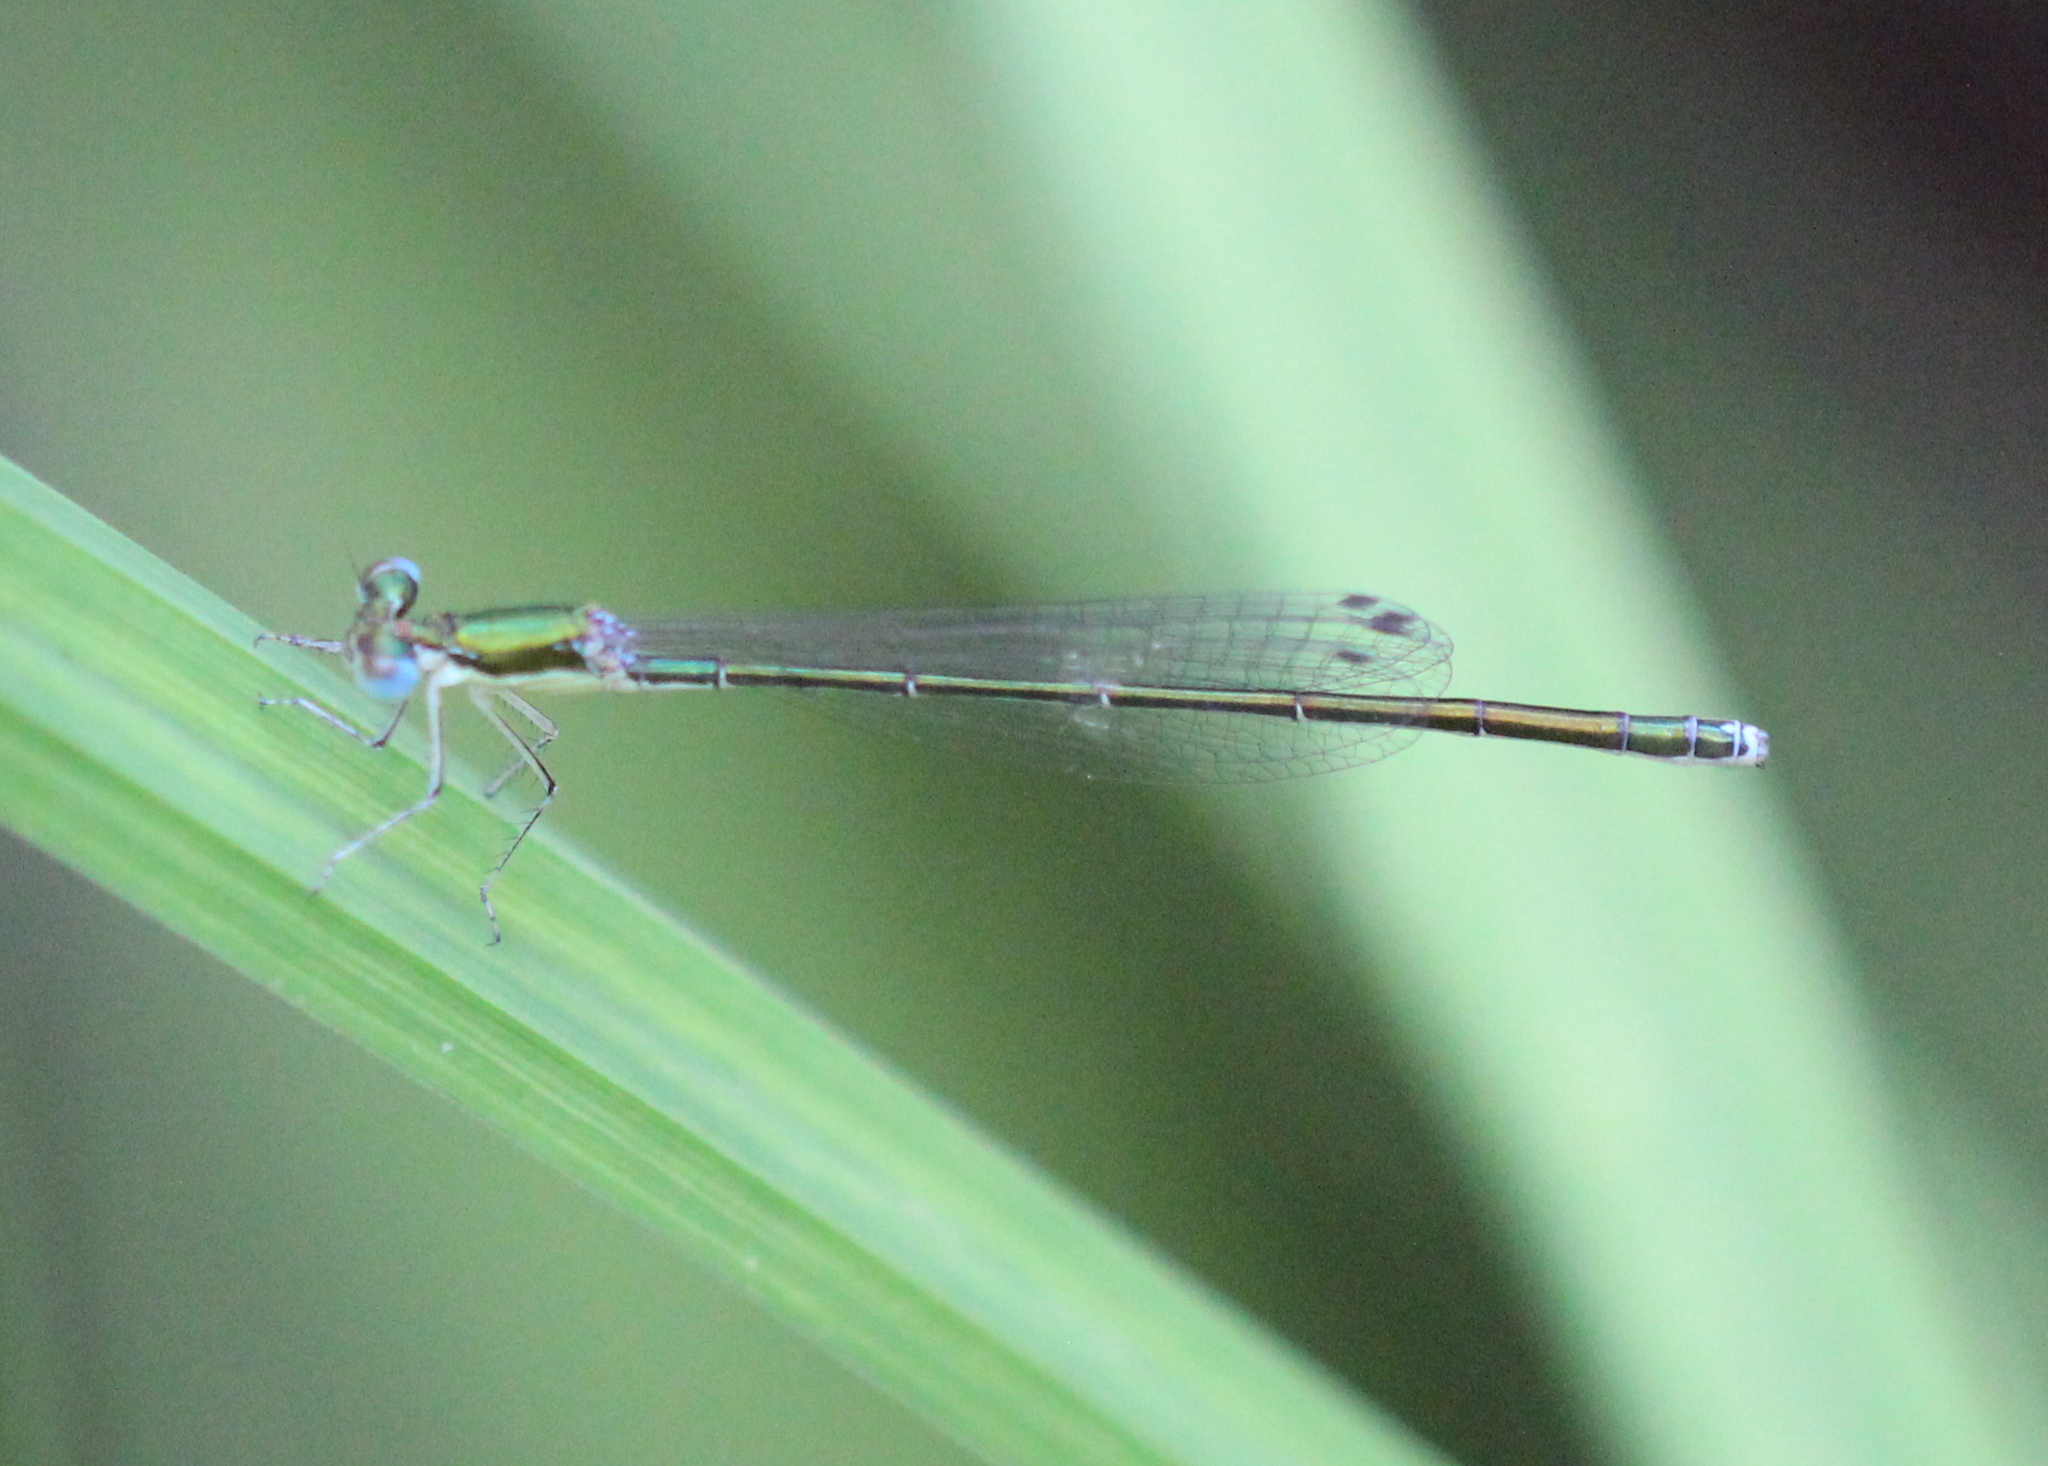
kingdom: Animalia
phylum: Arthropoda
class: Insecta
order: Odonata
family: Coenagrionidae
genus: Nehalennia
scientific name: Nehalennia irene
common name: Sedge sprite
